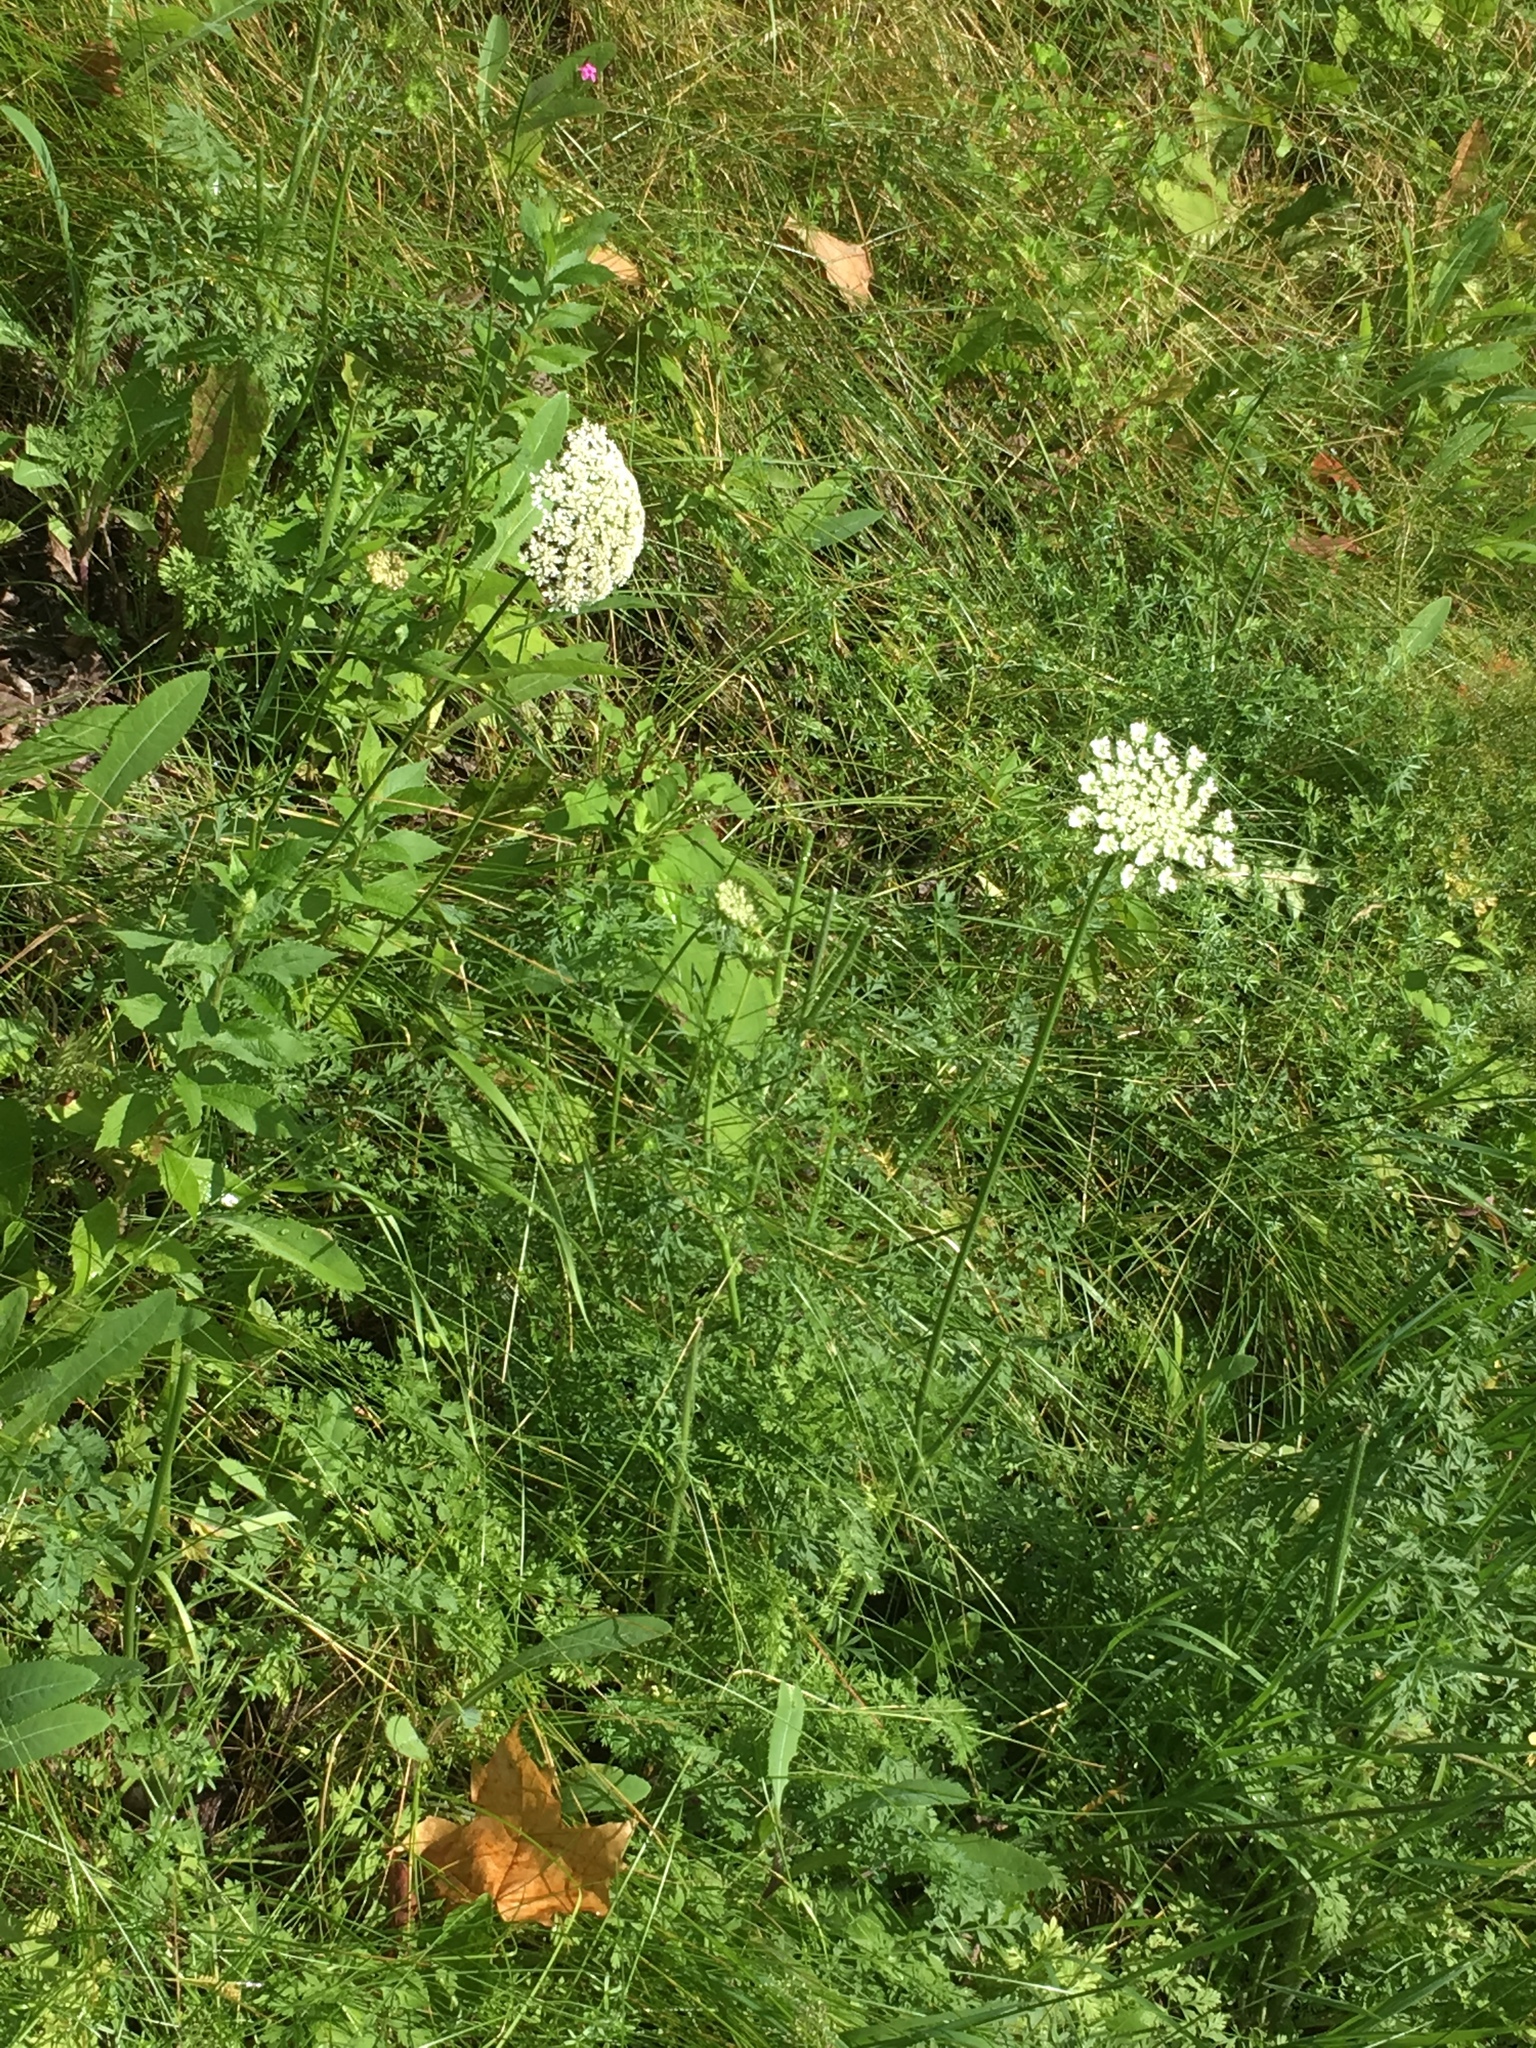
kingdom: Plantae
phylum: Tracheophyta
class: Magnoliopsida
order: Apiales
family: Apiaceae
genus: Daucus
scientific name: Daucus carota
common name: Wild carrot
